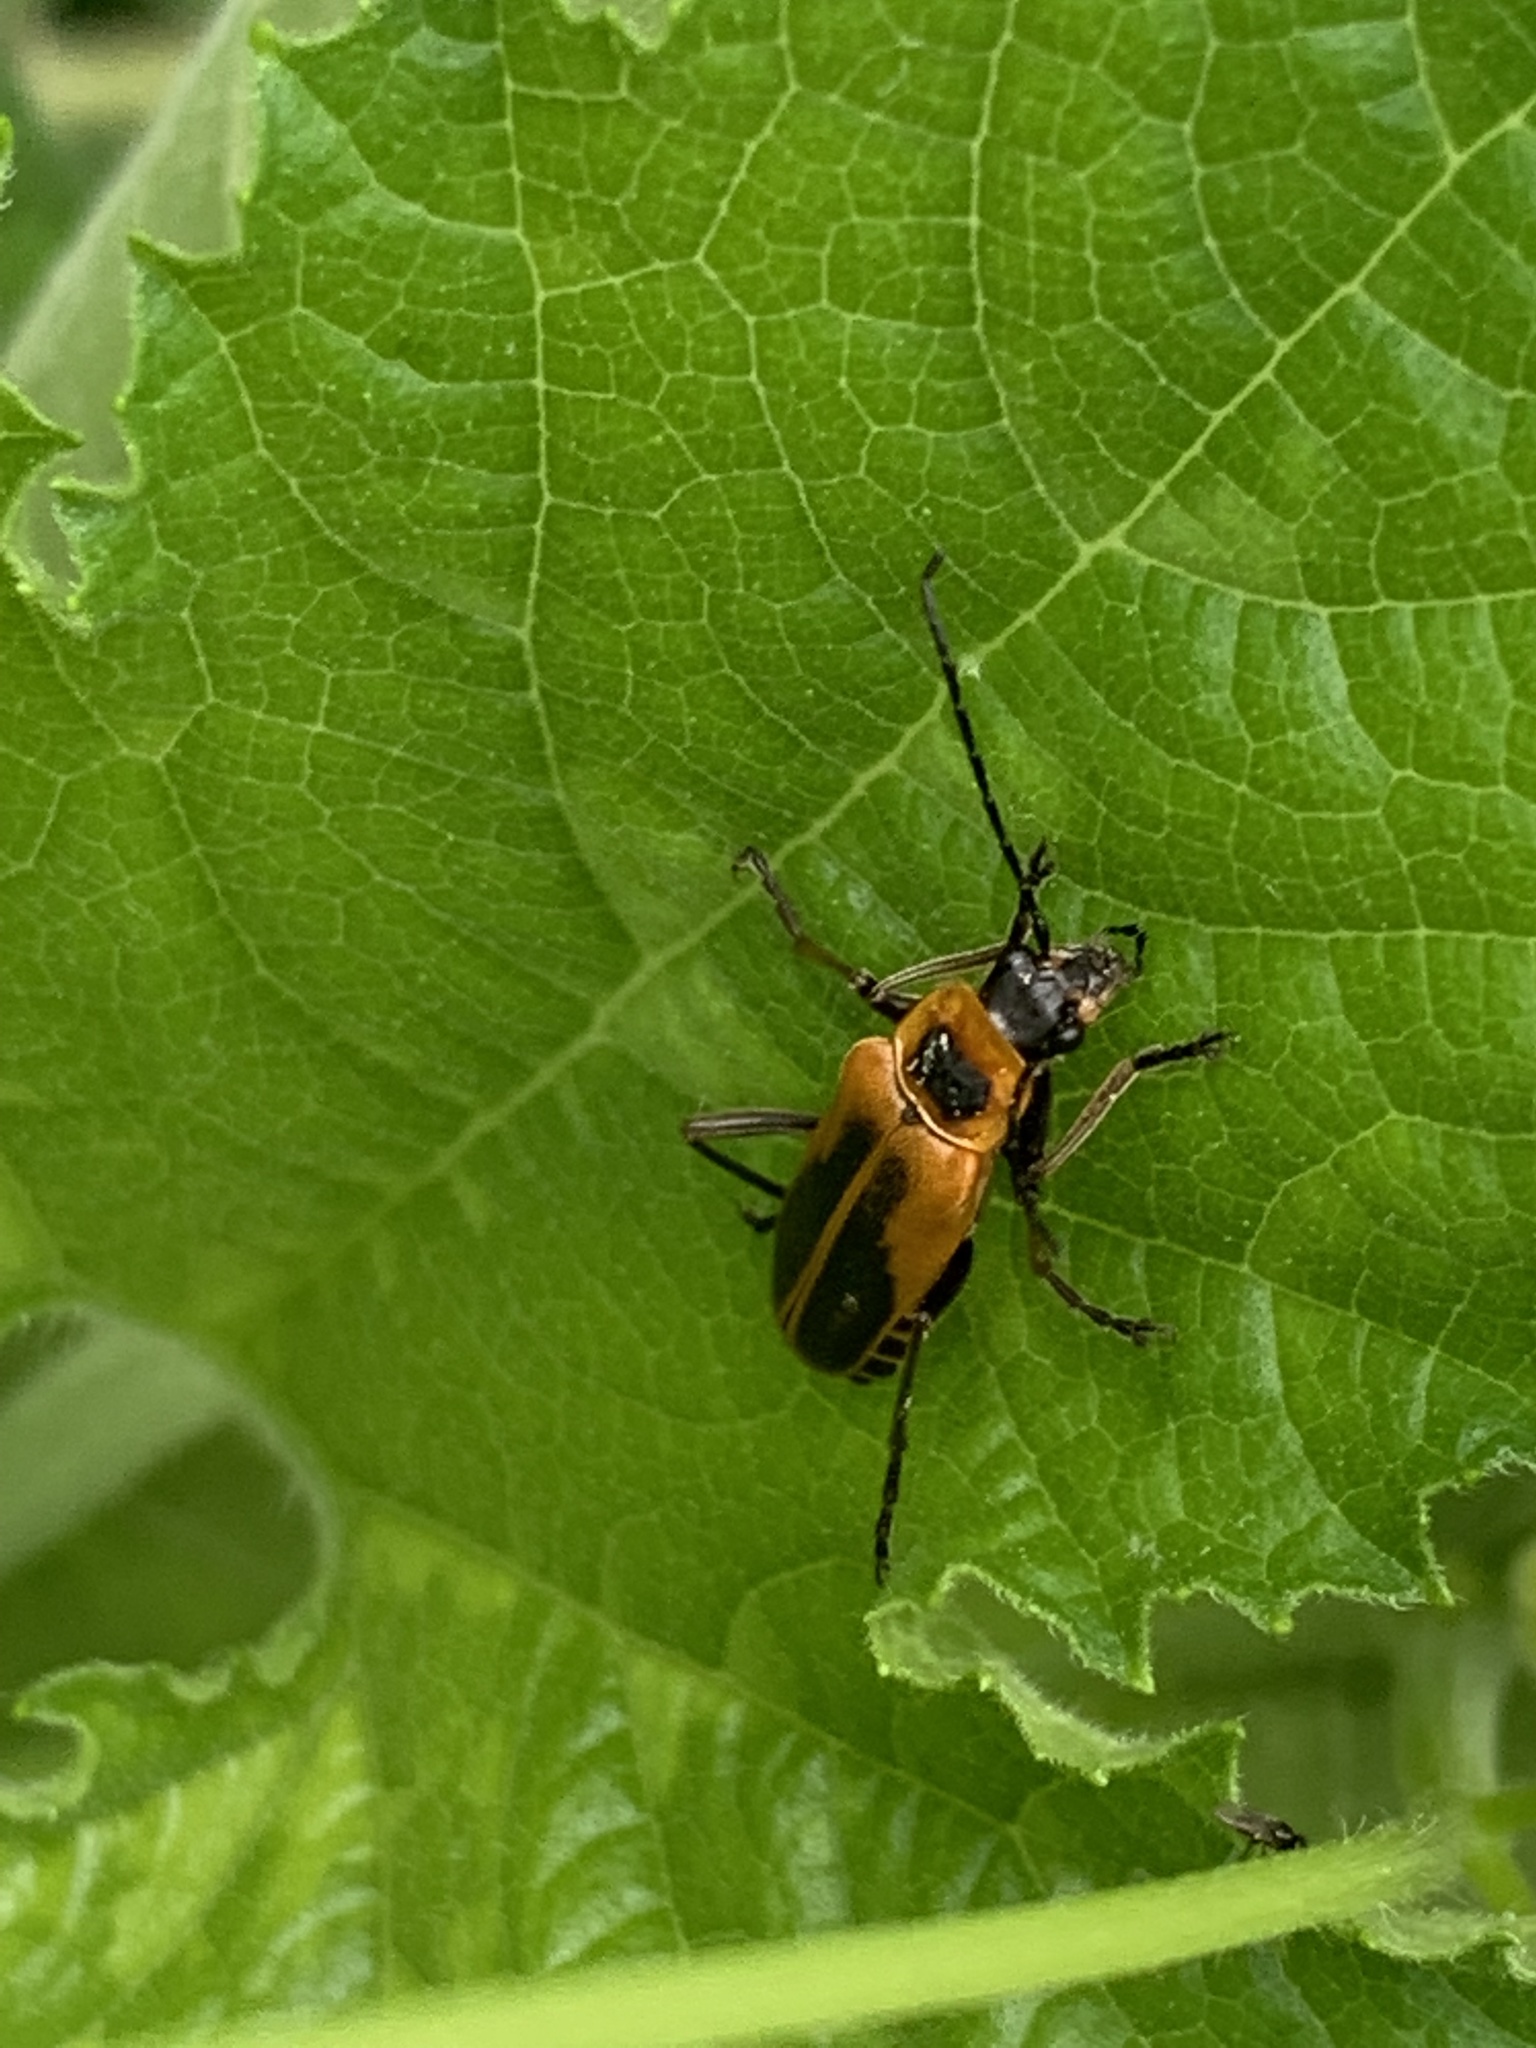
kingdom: Animalia
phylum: Arthropoda
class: Insecta
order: Coleoptera
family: Cantharidae
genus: Chauliognathus
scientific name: Chauliognathus pensylvanicus
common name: Goldenrod soldier beetle
